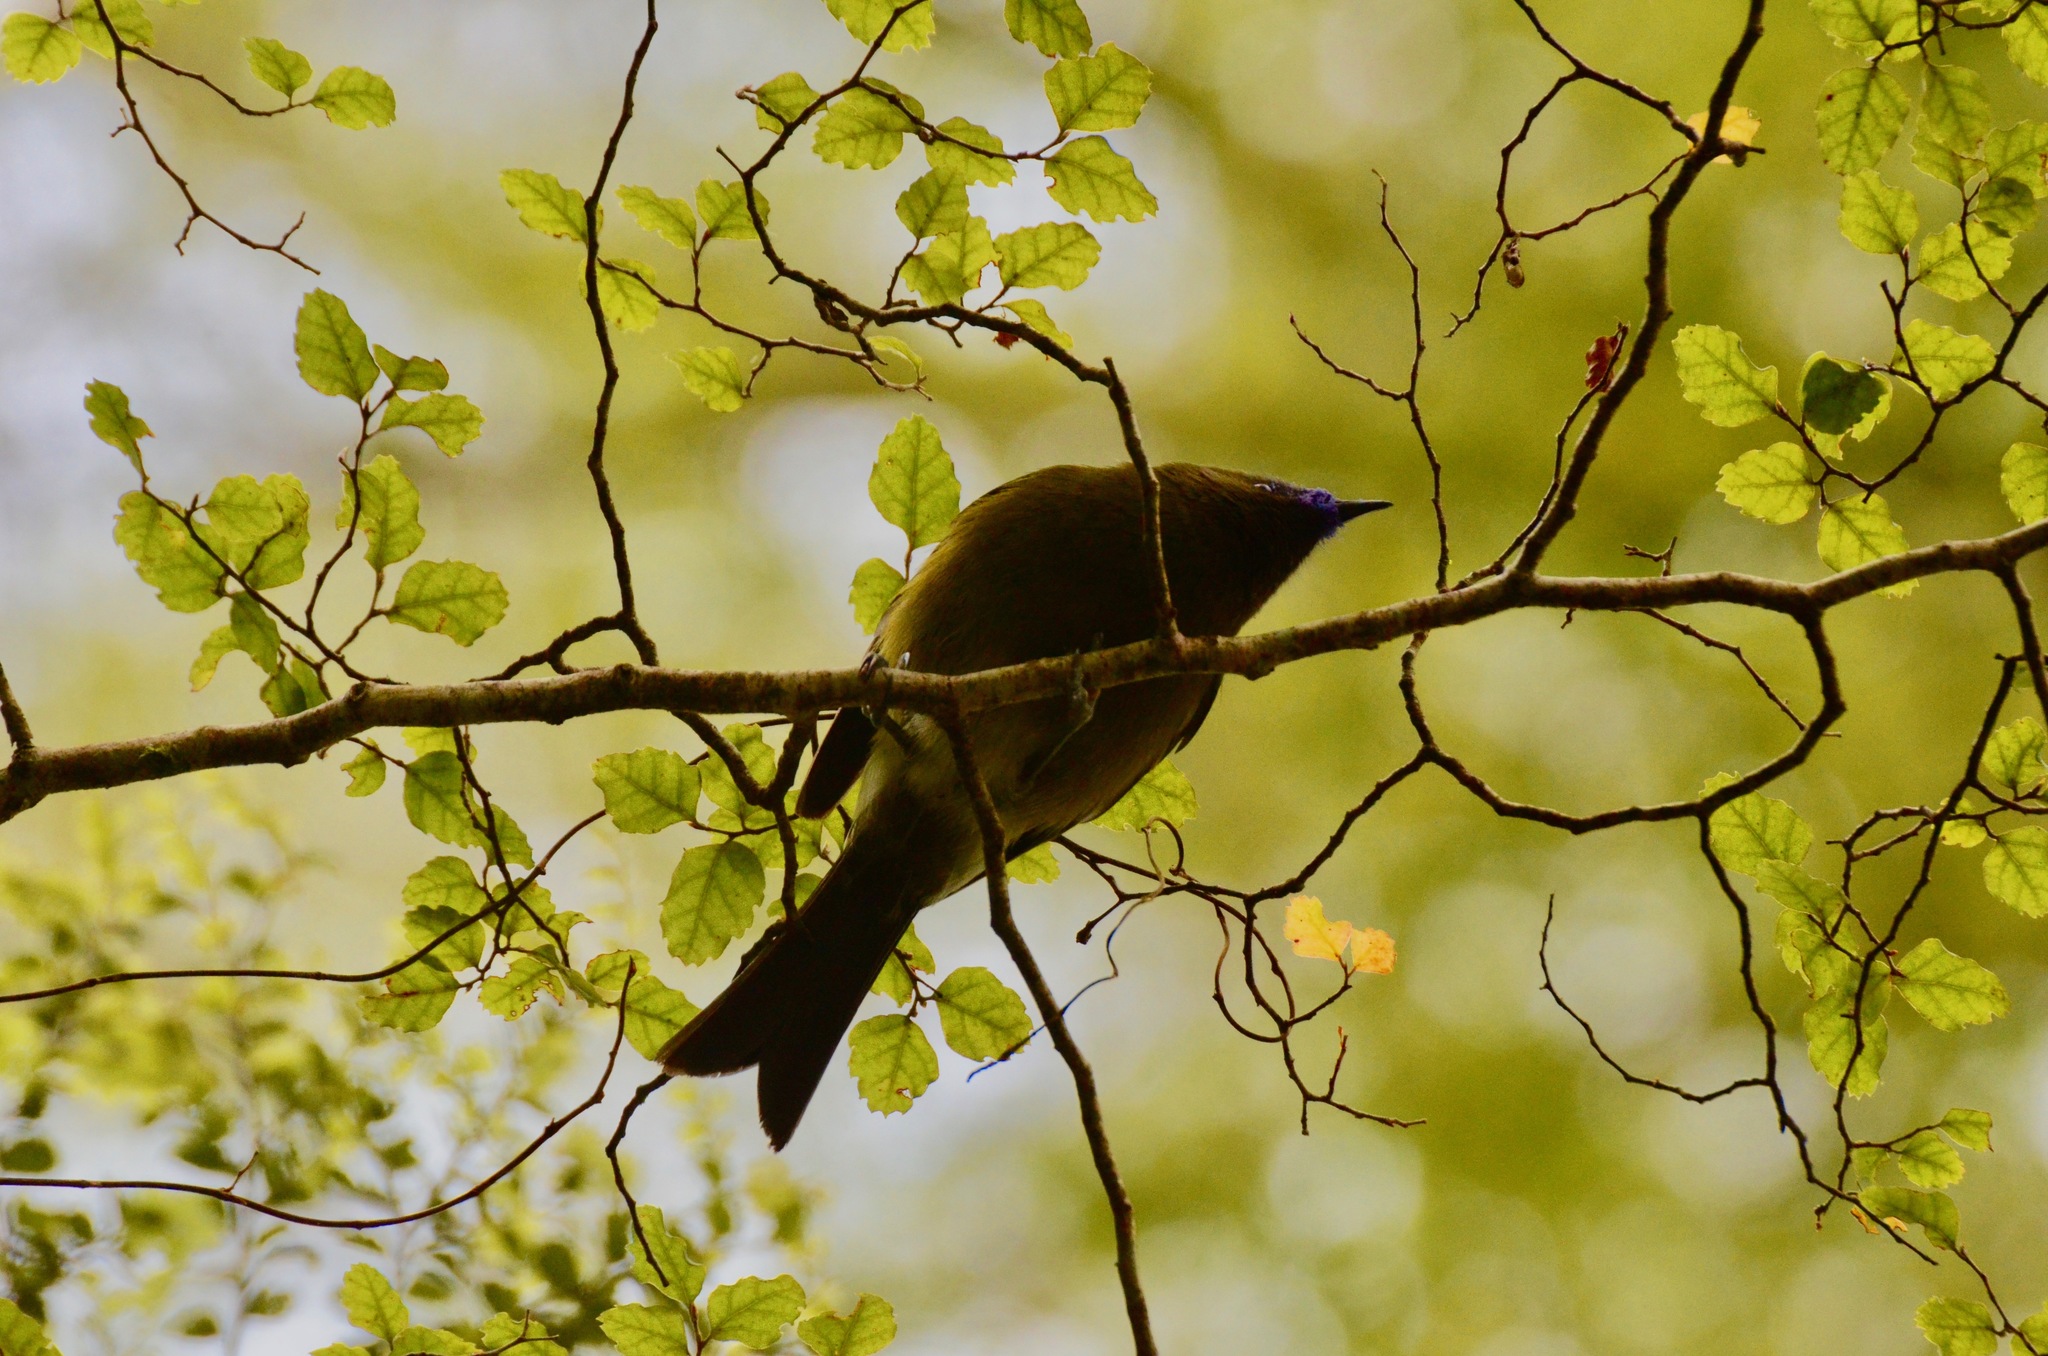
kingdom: Animalia
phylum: Chordata
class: Aves
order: Passeriformes
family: Meliphagidae
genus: Anthornis
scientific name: Anthornis melanura
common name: New zealand bellbird
